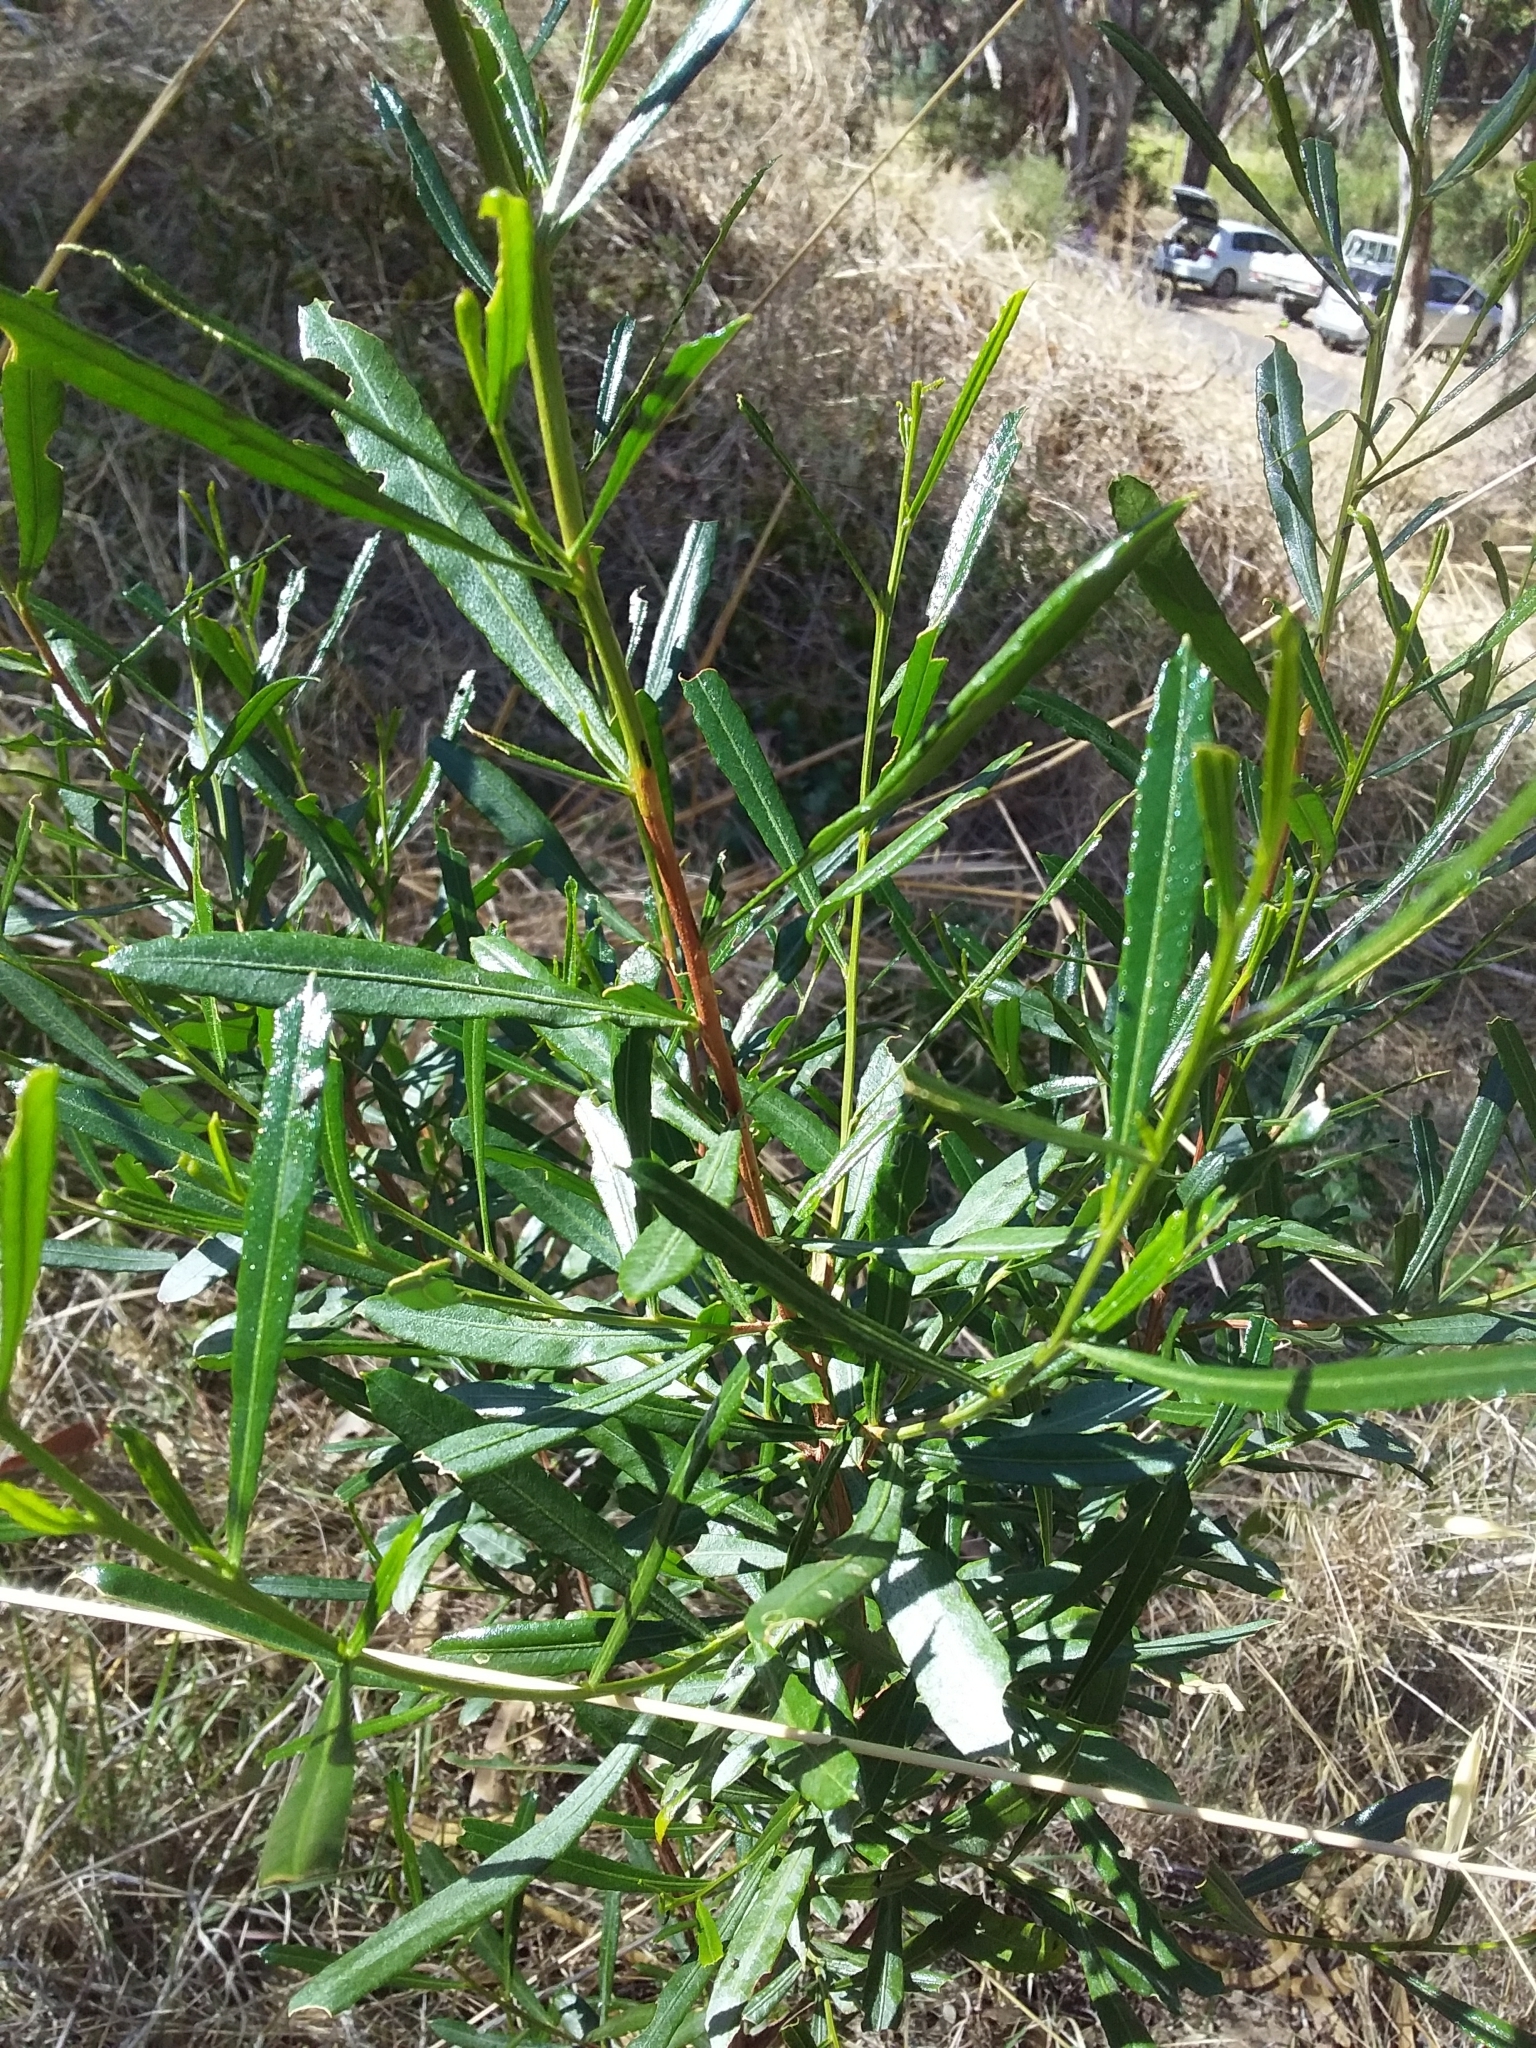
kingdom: Plantae
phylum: Tracheophyta
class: Magnoliopsida
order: Sapindales
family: Sapindaceae
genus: Dodonaea
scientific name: Dodonaea viscosa
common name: Hopbush
